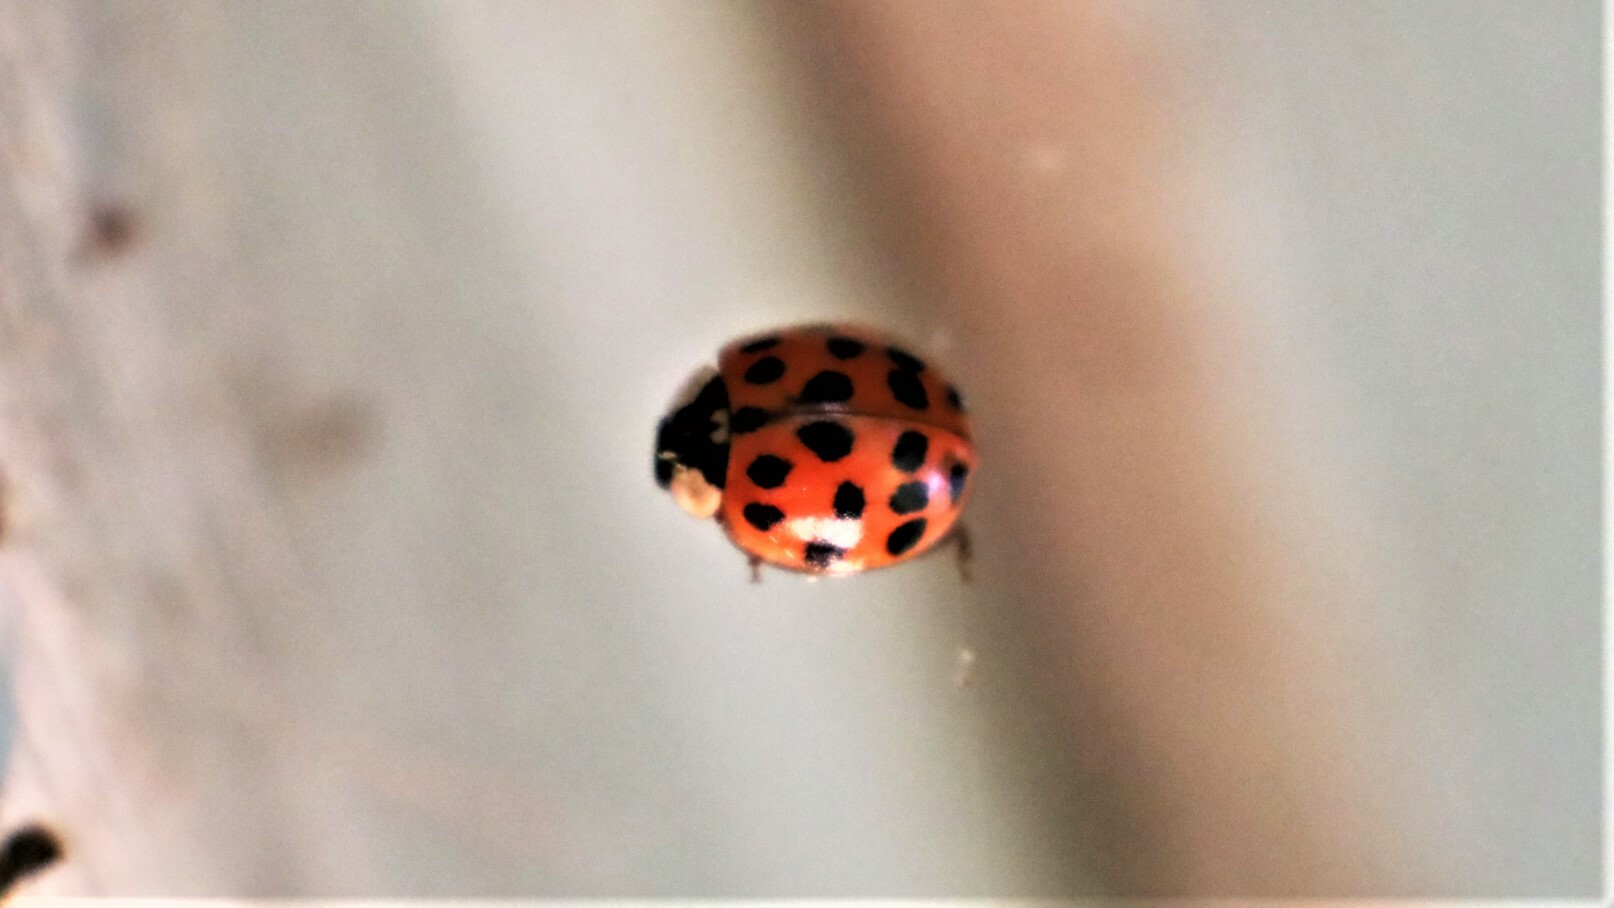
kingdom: Animalia
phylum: Arthropoda
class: Insecta
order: Coleoptera
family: Coccinellidae
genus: Harmonia
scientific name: Harmonia axyridis
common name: Harlequin ladybird
